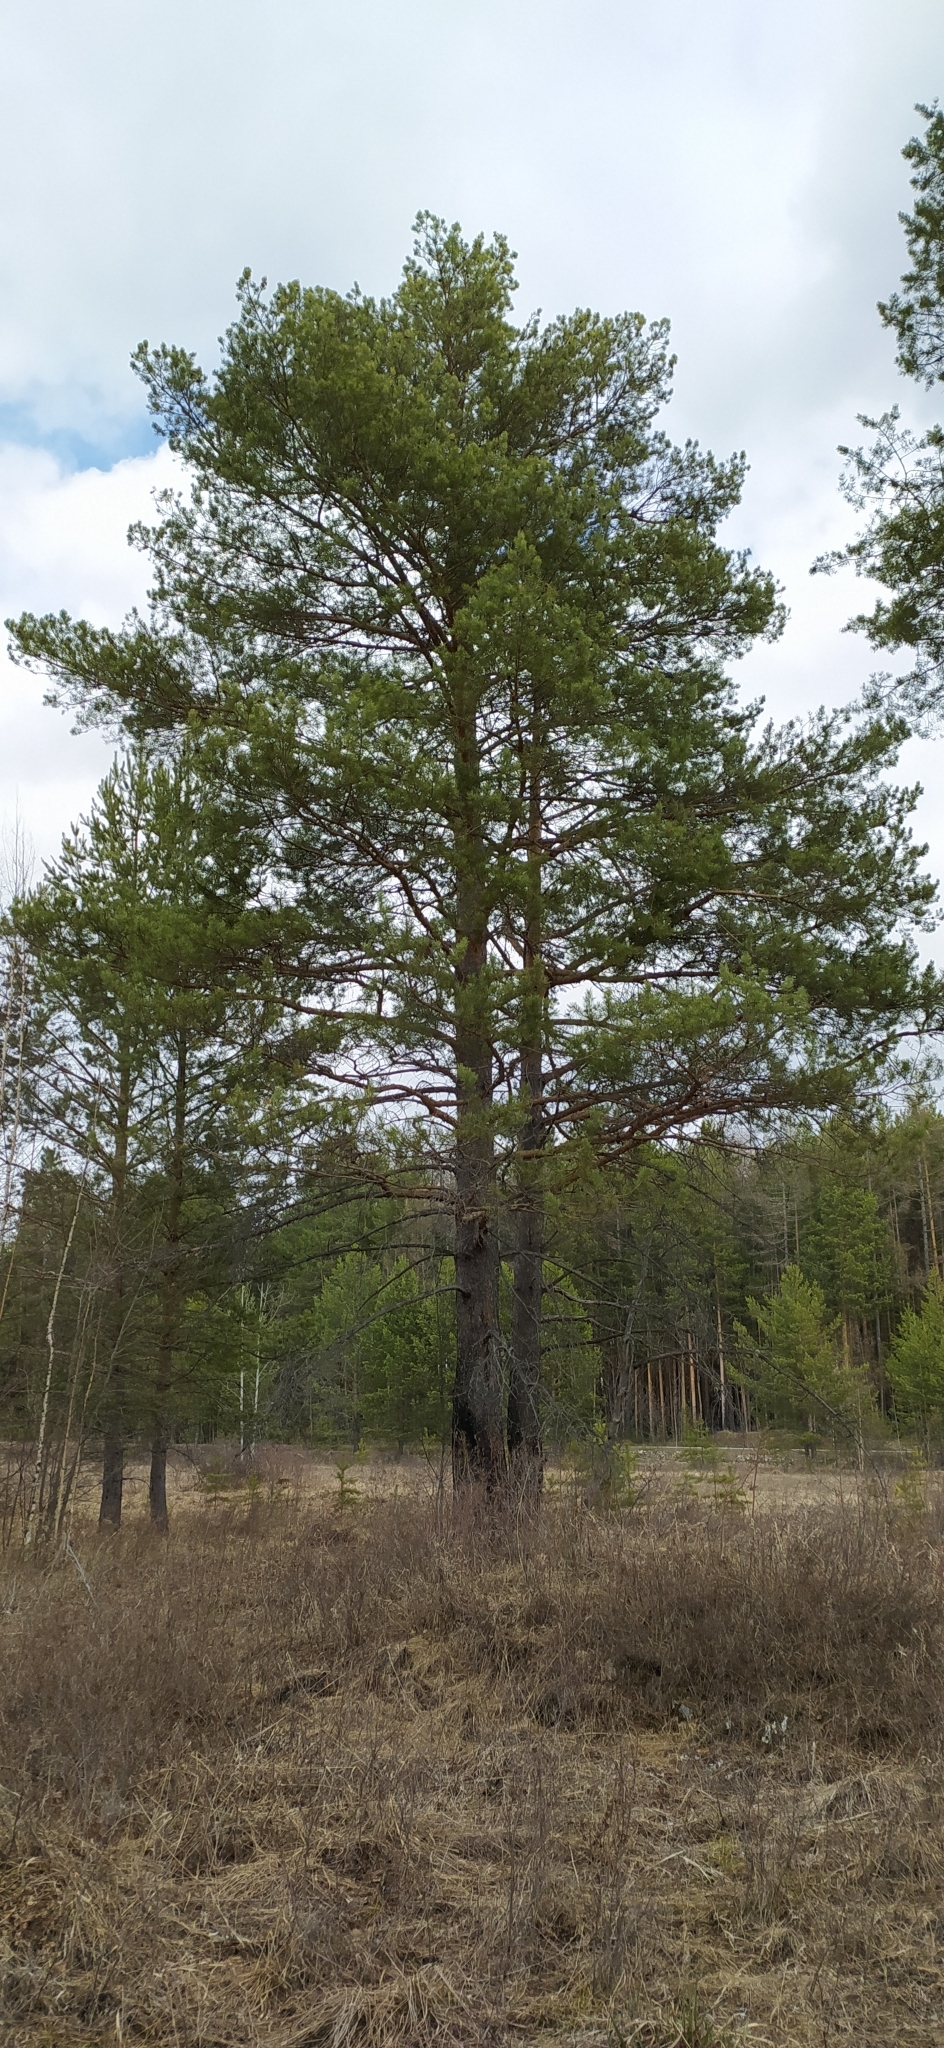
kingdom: Plantae
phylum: Tracheophyta
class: Pinopsida
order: Pinales
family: Pinaceae
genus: Pinus
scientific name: Pinus sylvestris
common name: Scots pine
